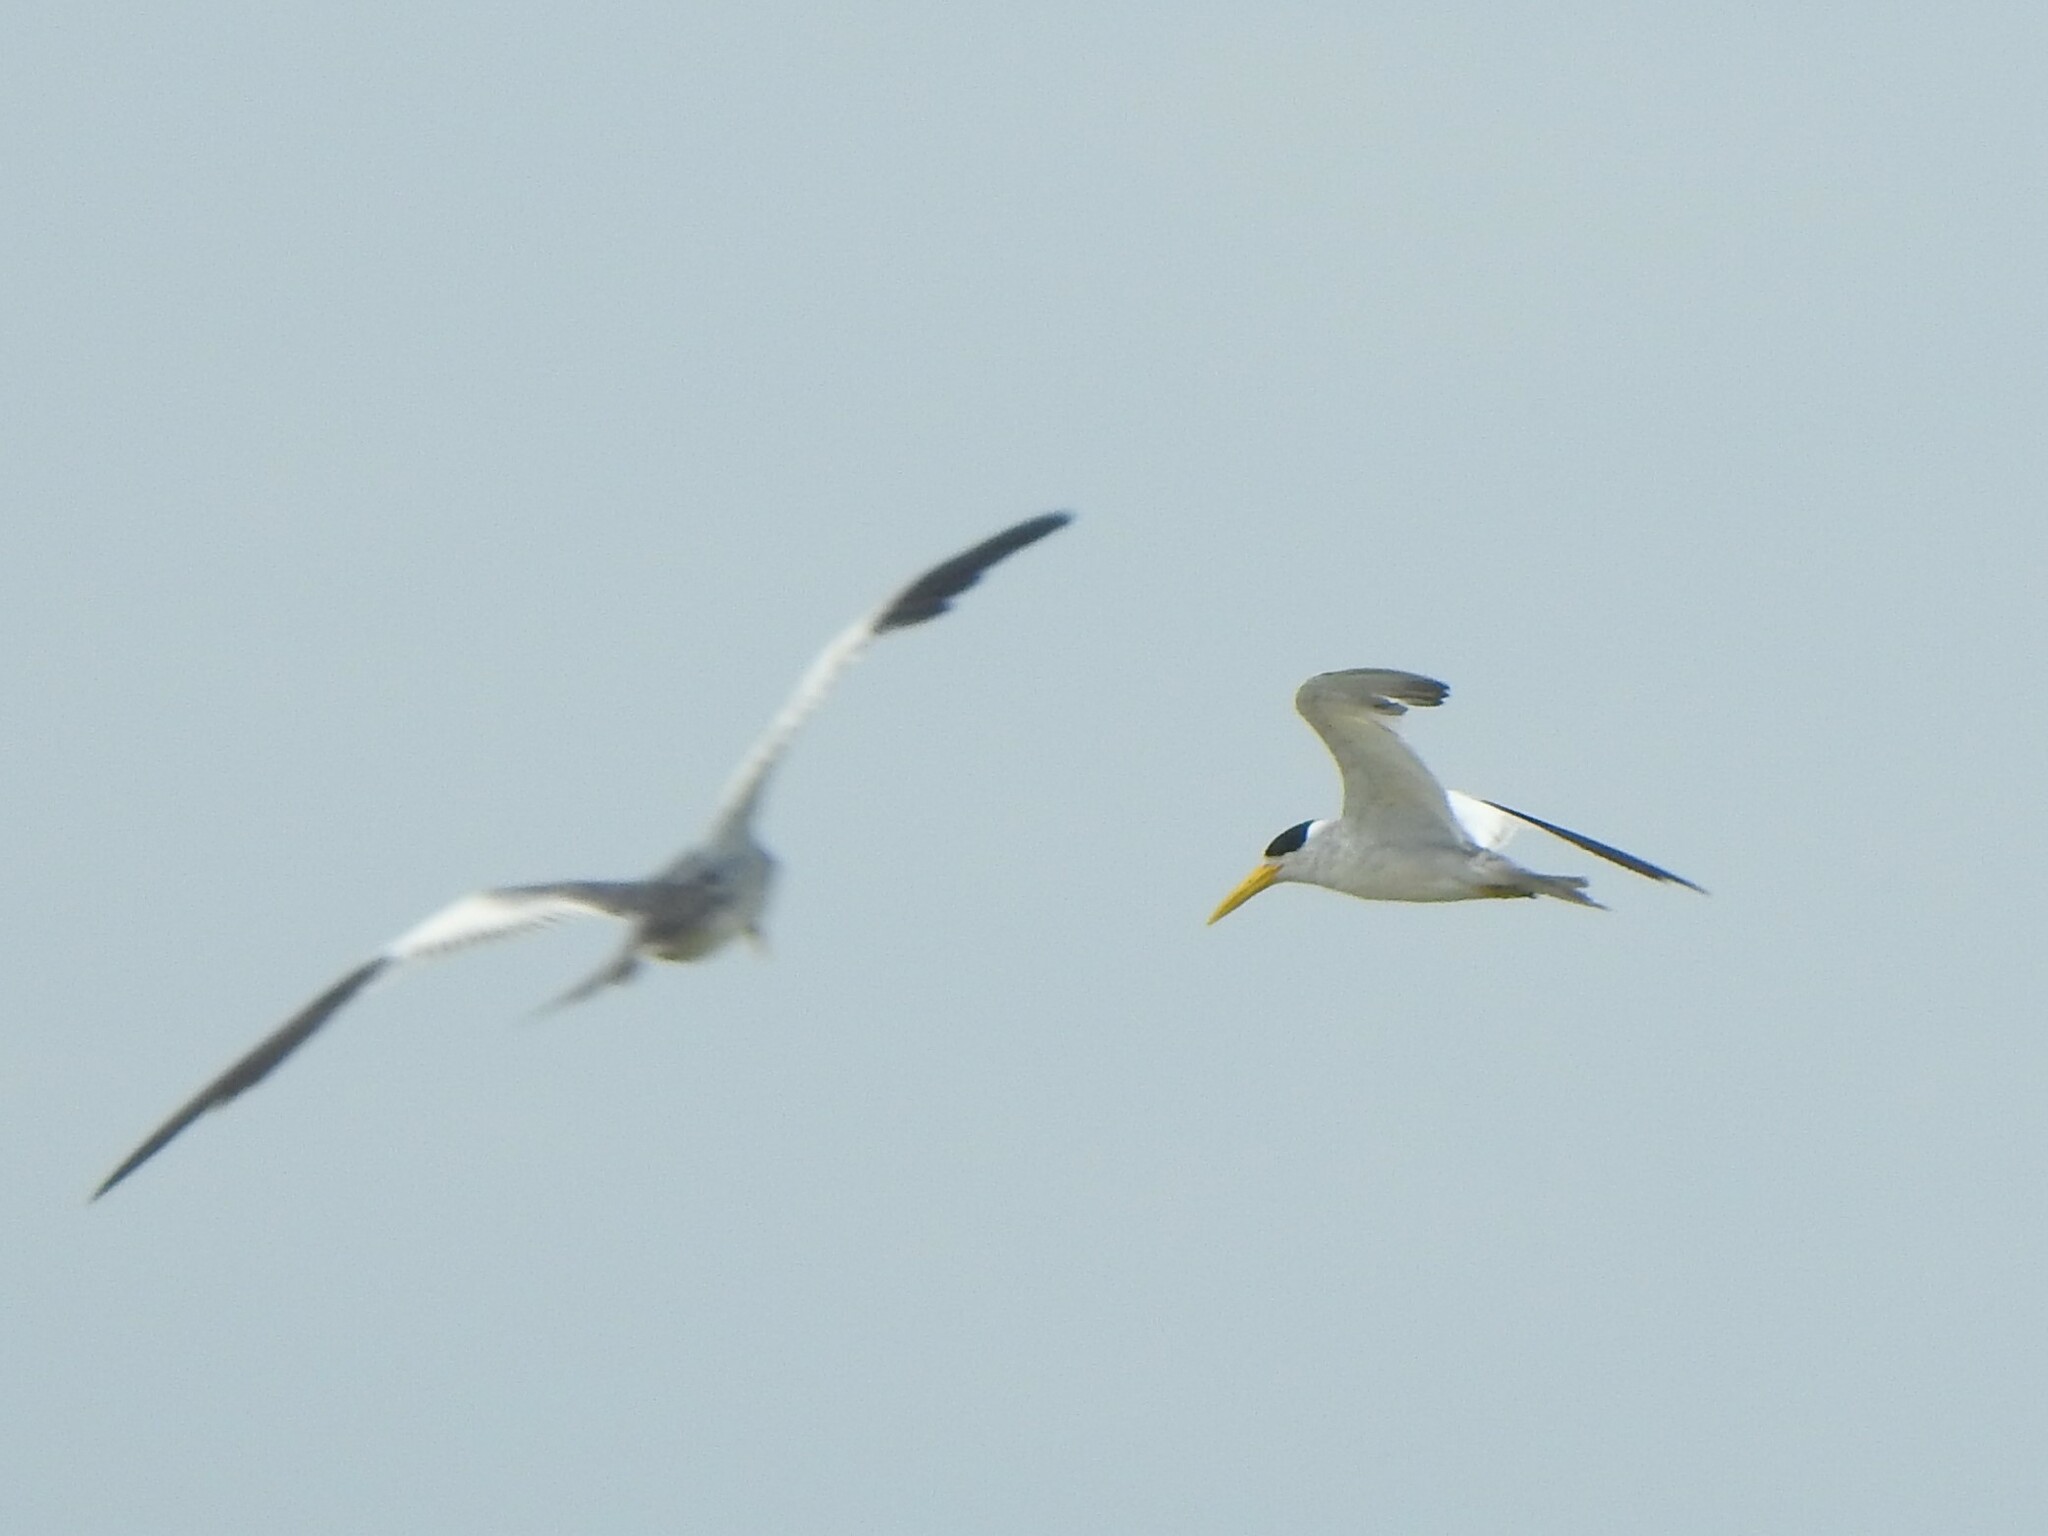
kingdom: Animalia
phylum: Chordata
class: Aves
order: Charadriiformes
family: Laridae
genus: Phaetusa
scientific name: Phaetusa simplex
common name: Large-billed tern
